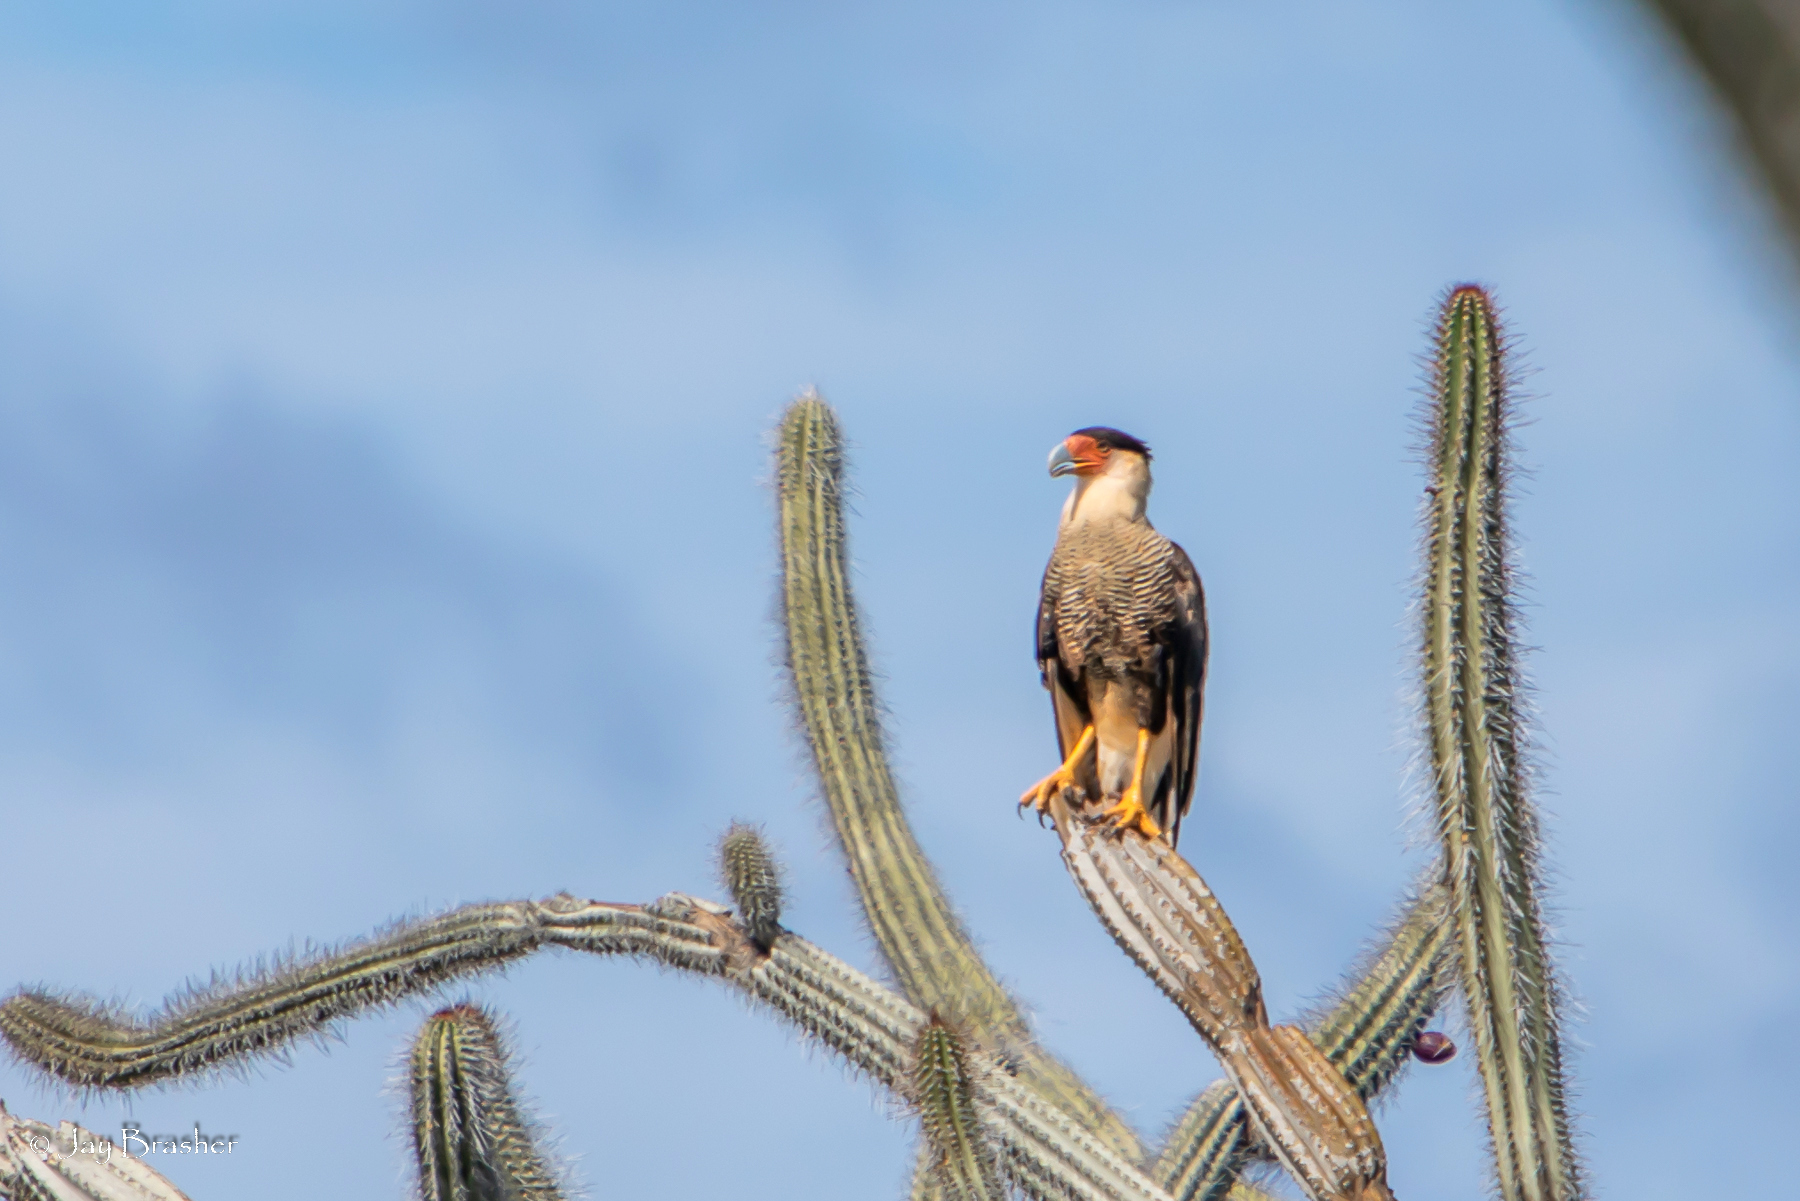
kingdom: Animalia
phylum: Chordata
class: Aves
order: Falconiformes
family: Falconidae
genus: Caracara
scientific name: Caracara plancus
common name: Southern caracara
